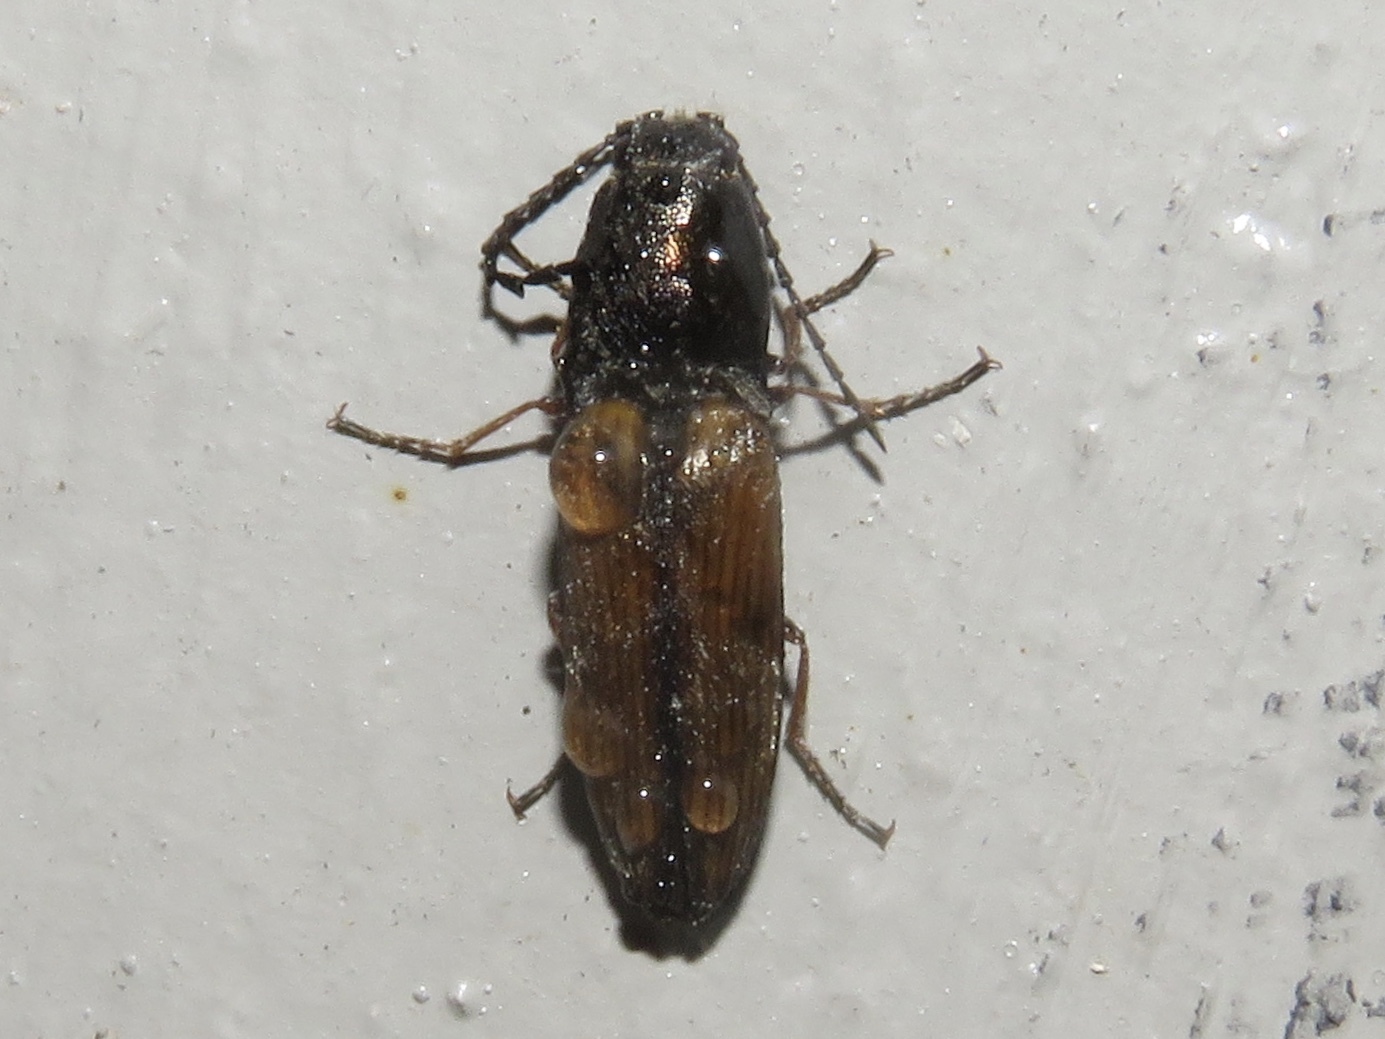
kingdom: Animalia
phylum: Arthropoda
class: Insecta
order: Coleoptera
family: Elateridae
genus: Corymbitodes
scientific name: Corymbitodes tarsalis
